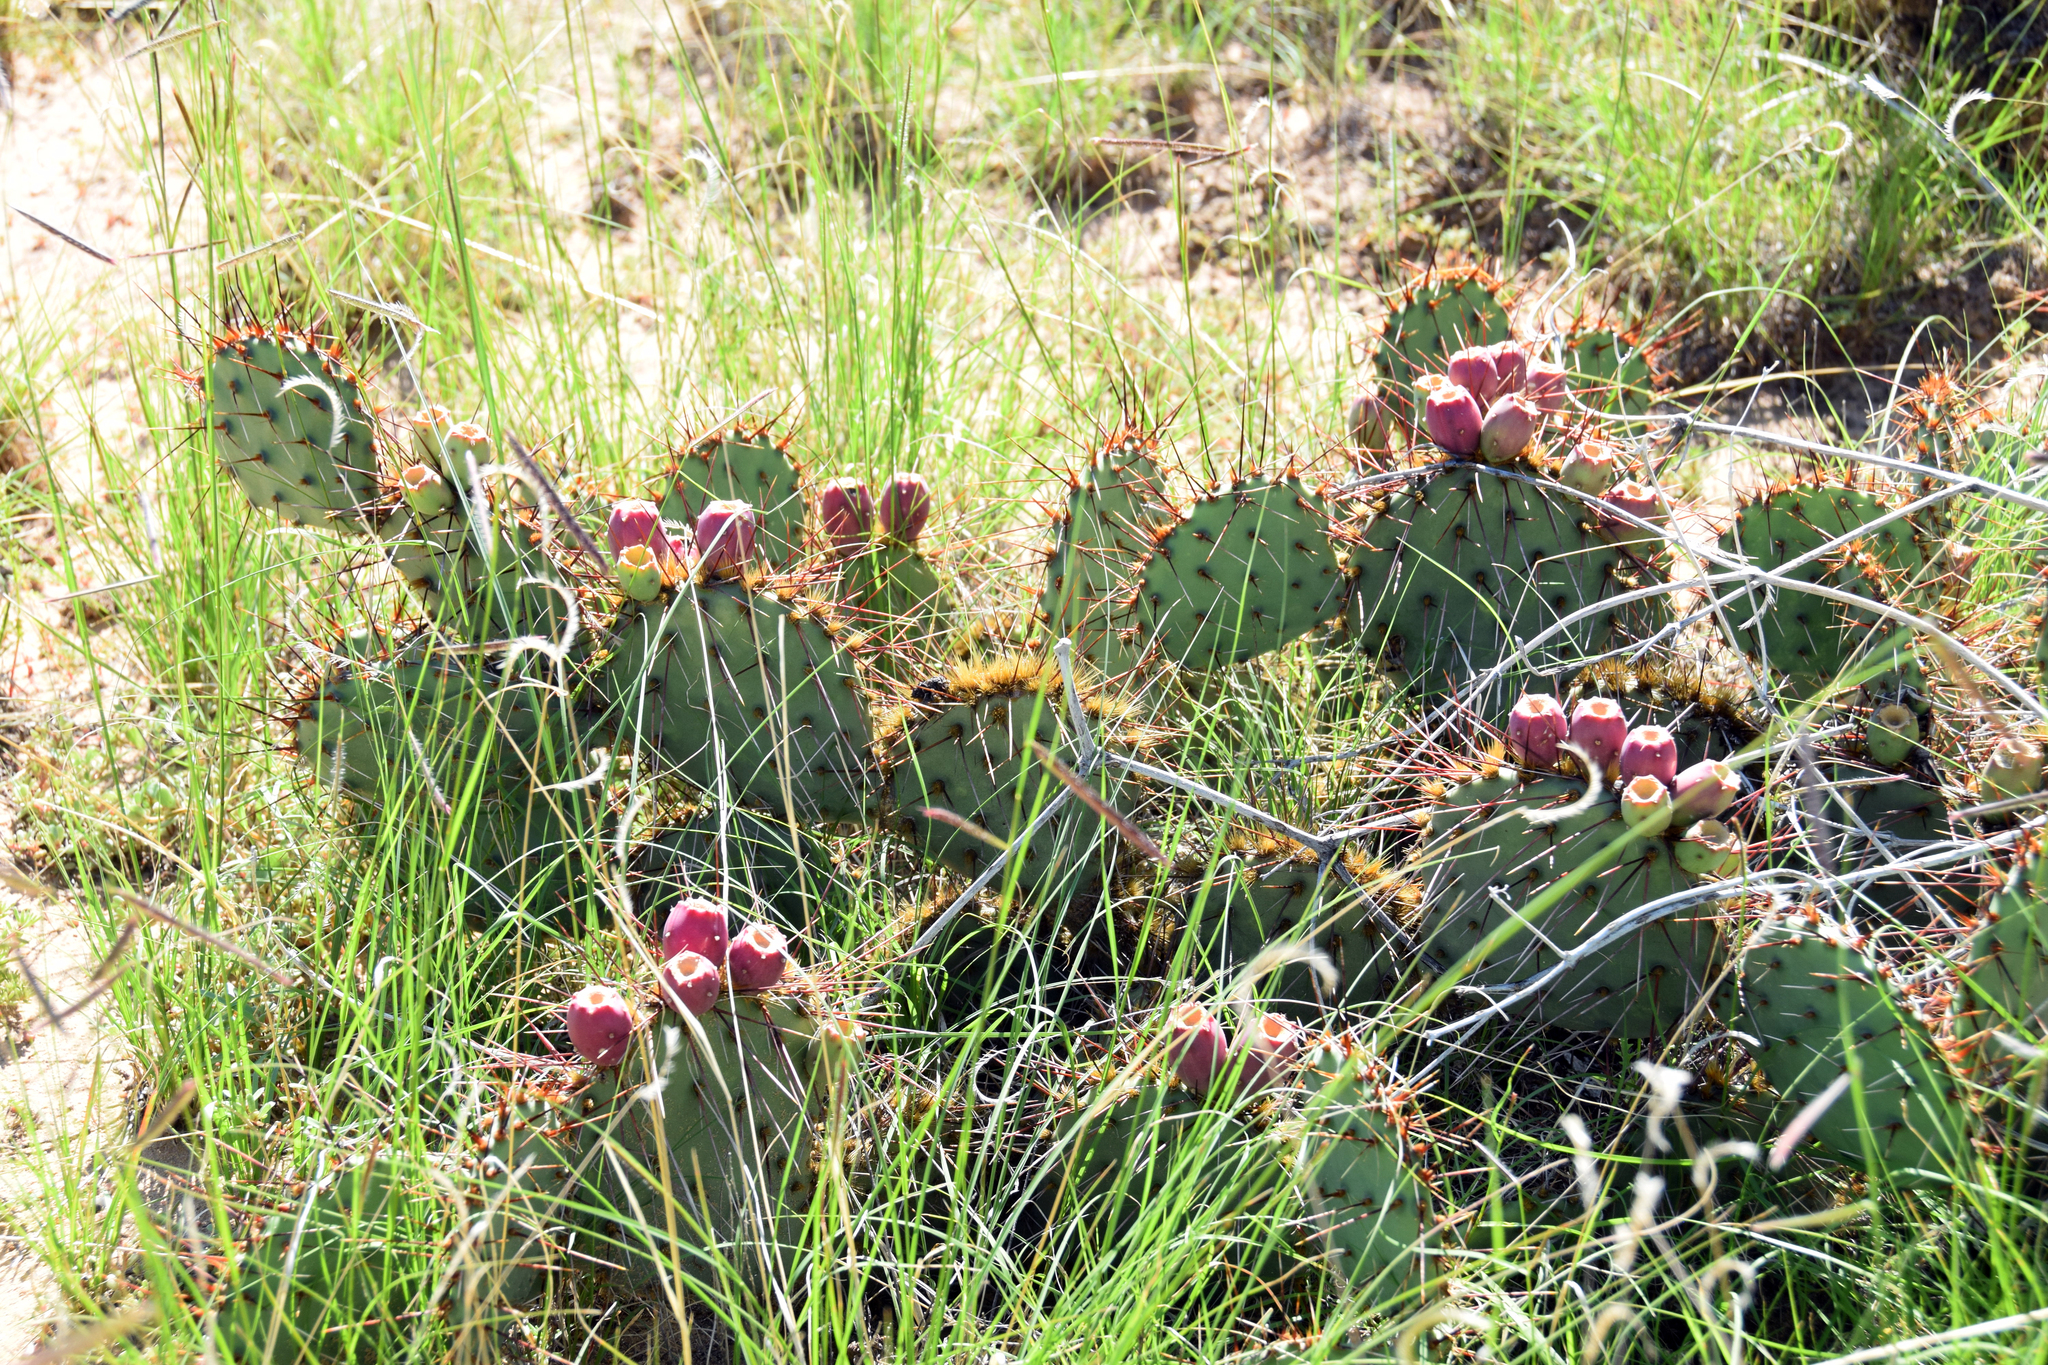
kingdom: Plantae
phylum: Tracheophyta
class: Magnoliopsida
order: Caryophyllales
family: Cactaceae
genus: Opuntia
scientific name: Opuntia phaeacantha
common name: New mexico prickly-pear
